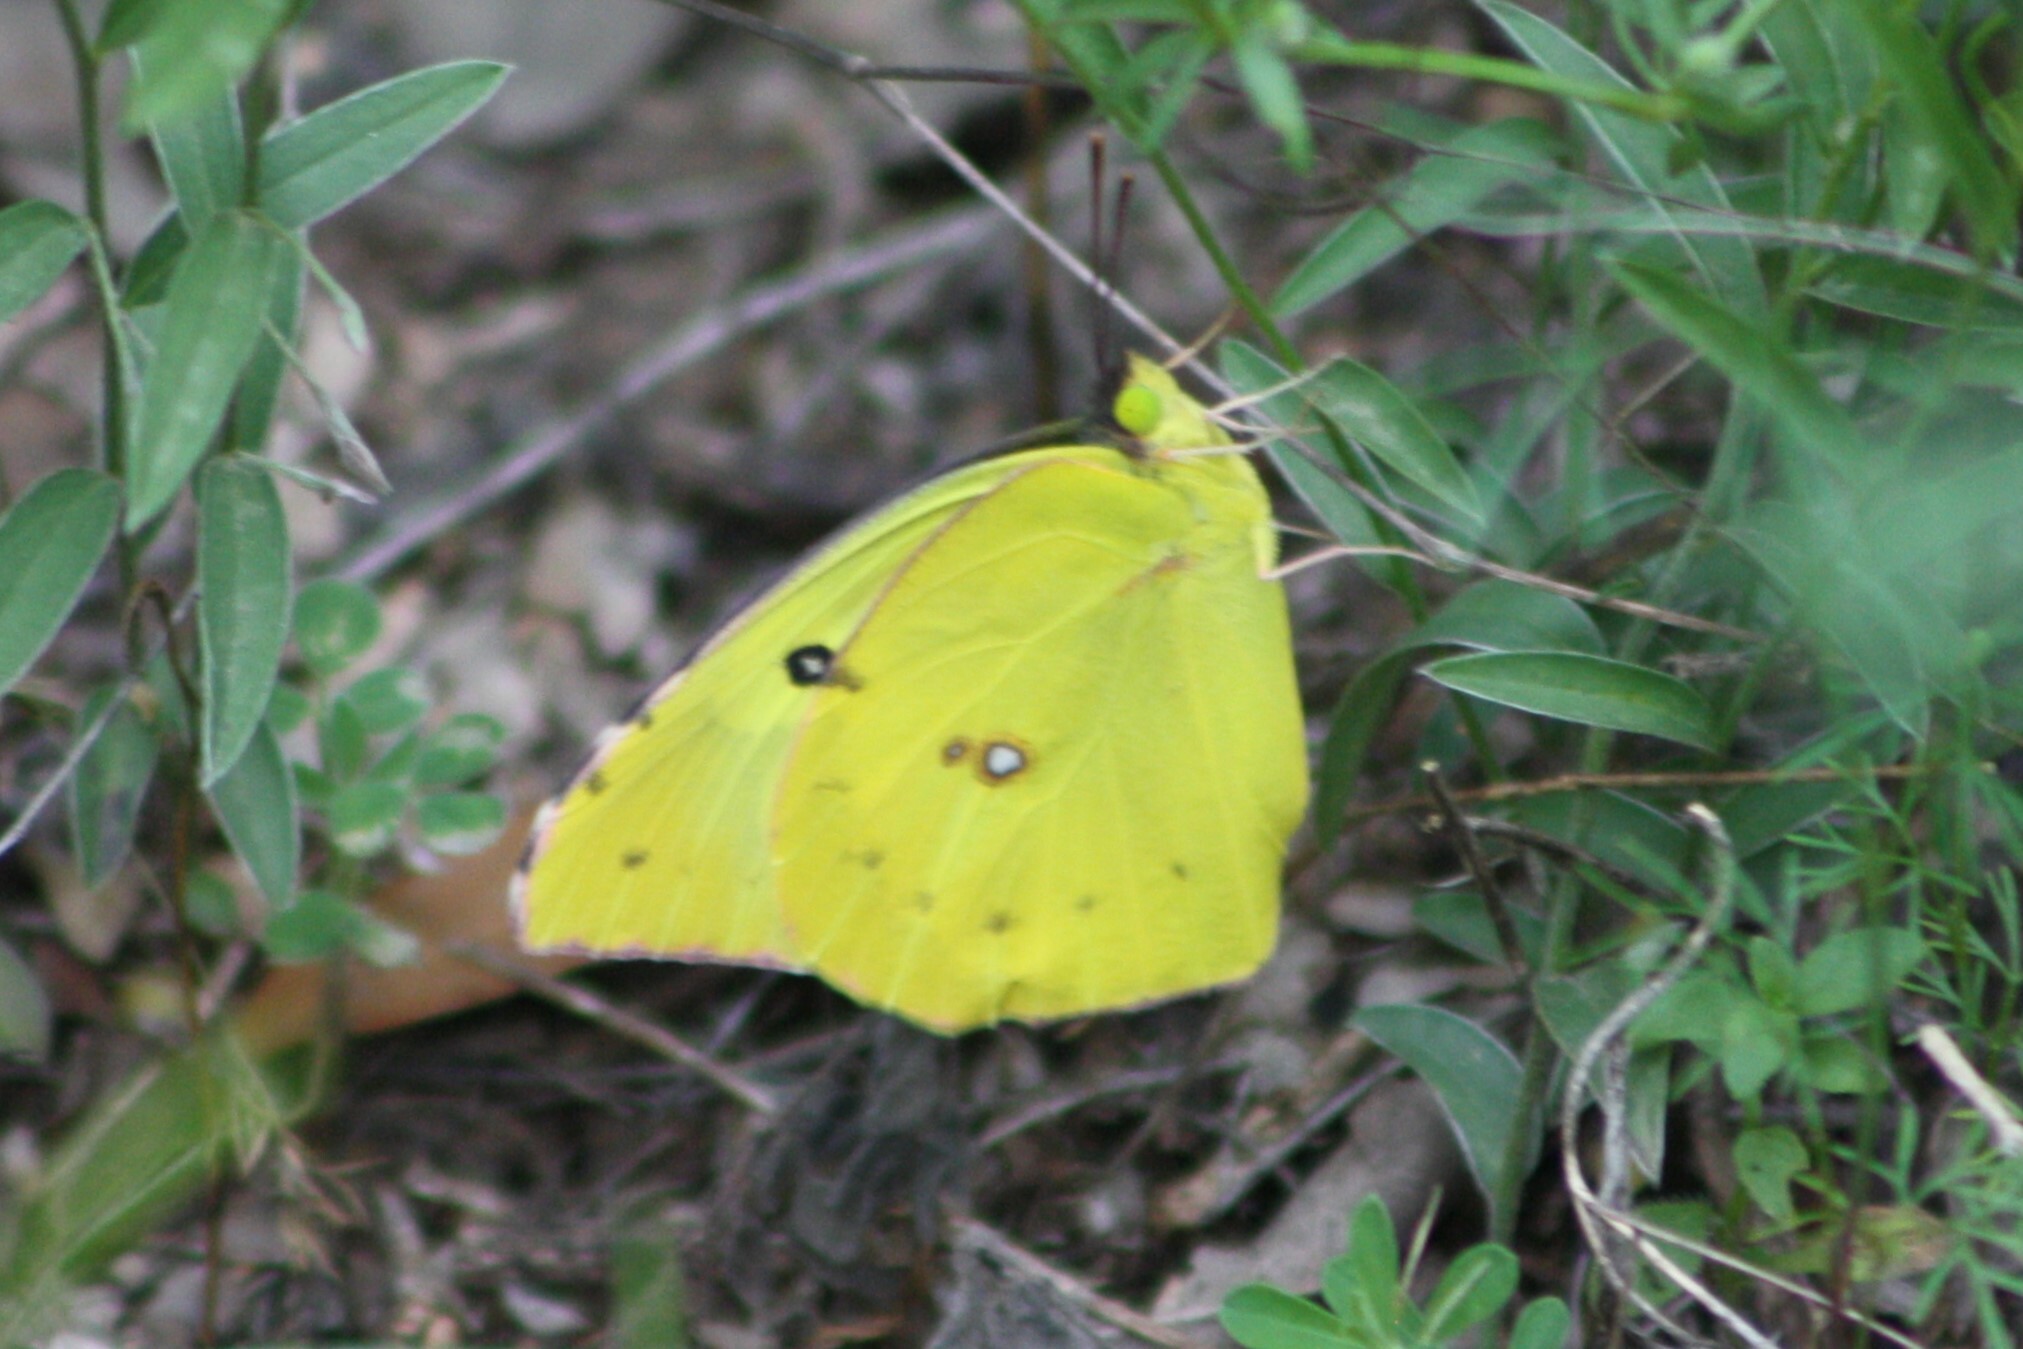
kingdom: Animalia
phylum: Arthropoda
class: Insecta
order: Lepidoptera
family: Pieridae
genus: Zerene
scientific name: Zerene cesonia
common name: Southern dogface
